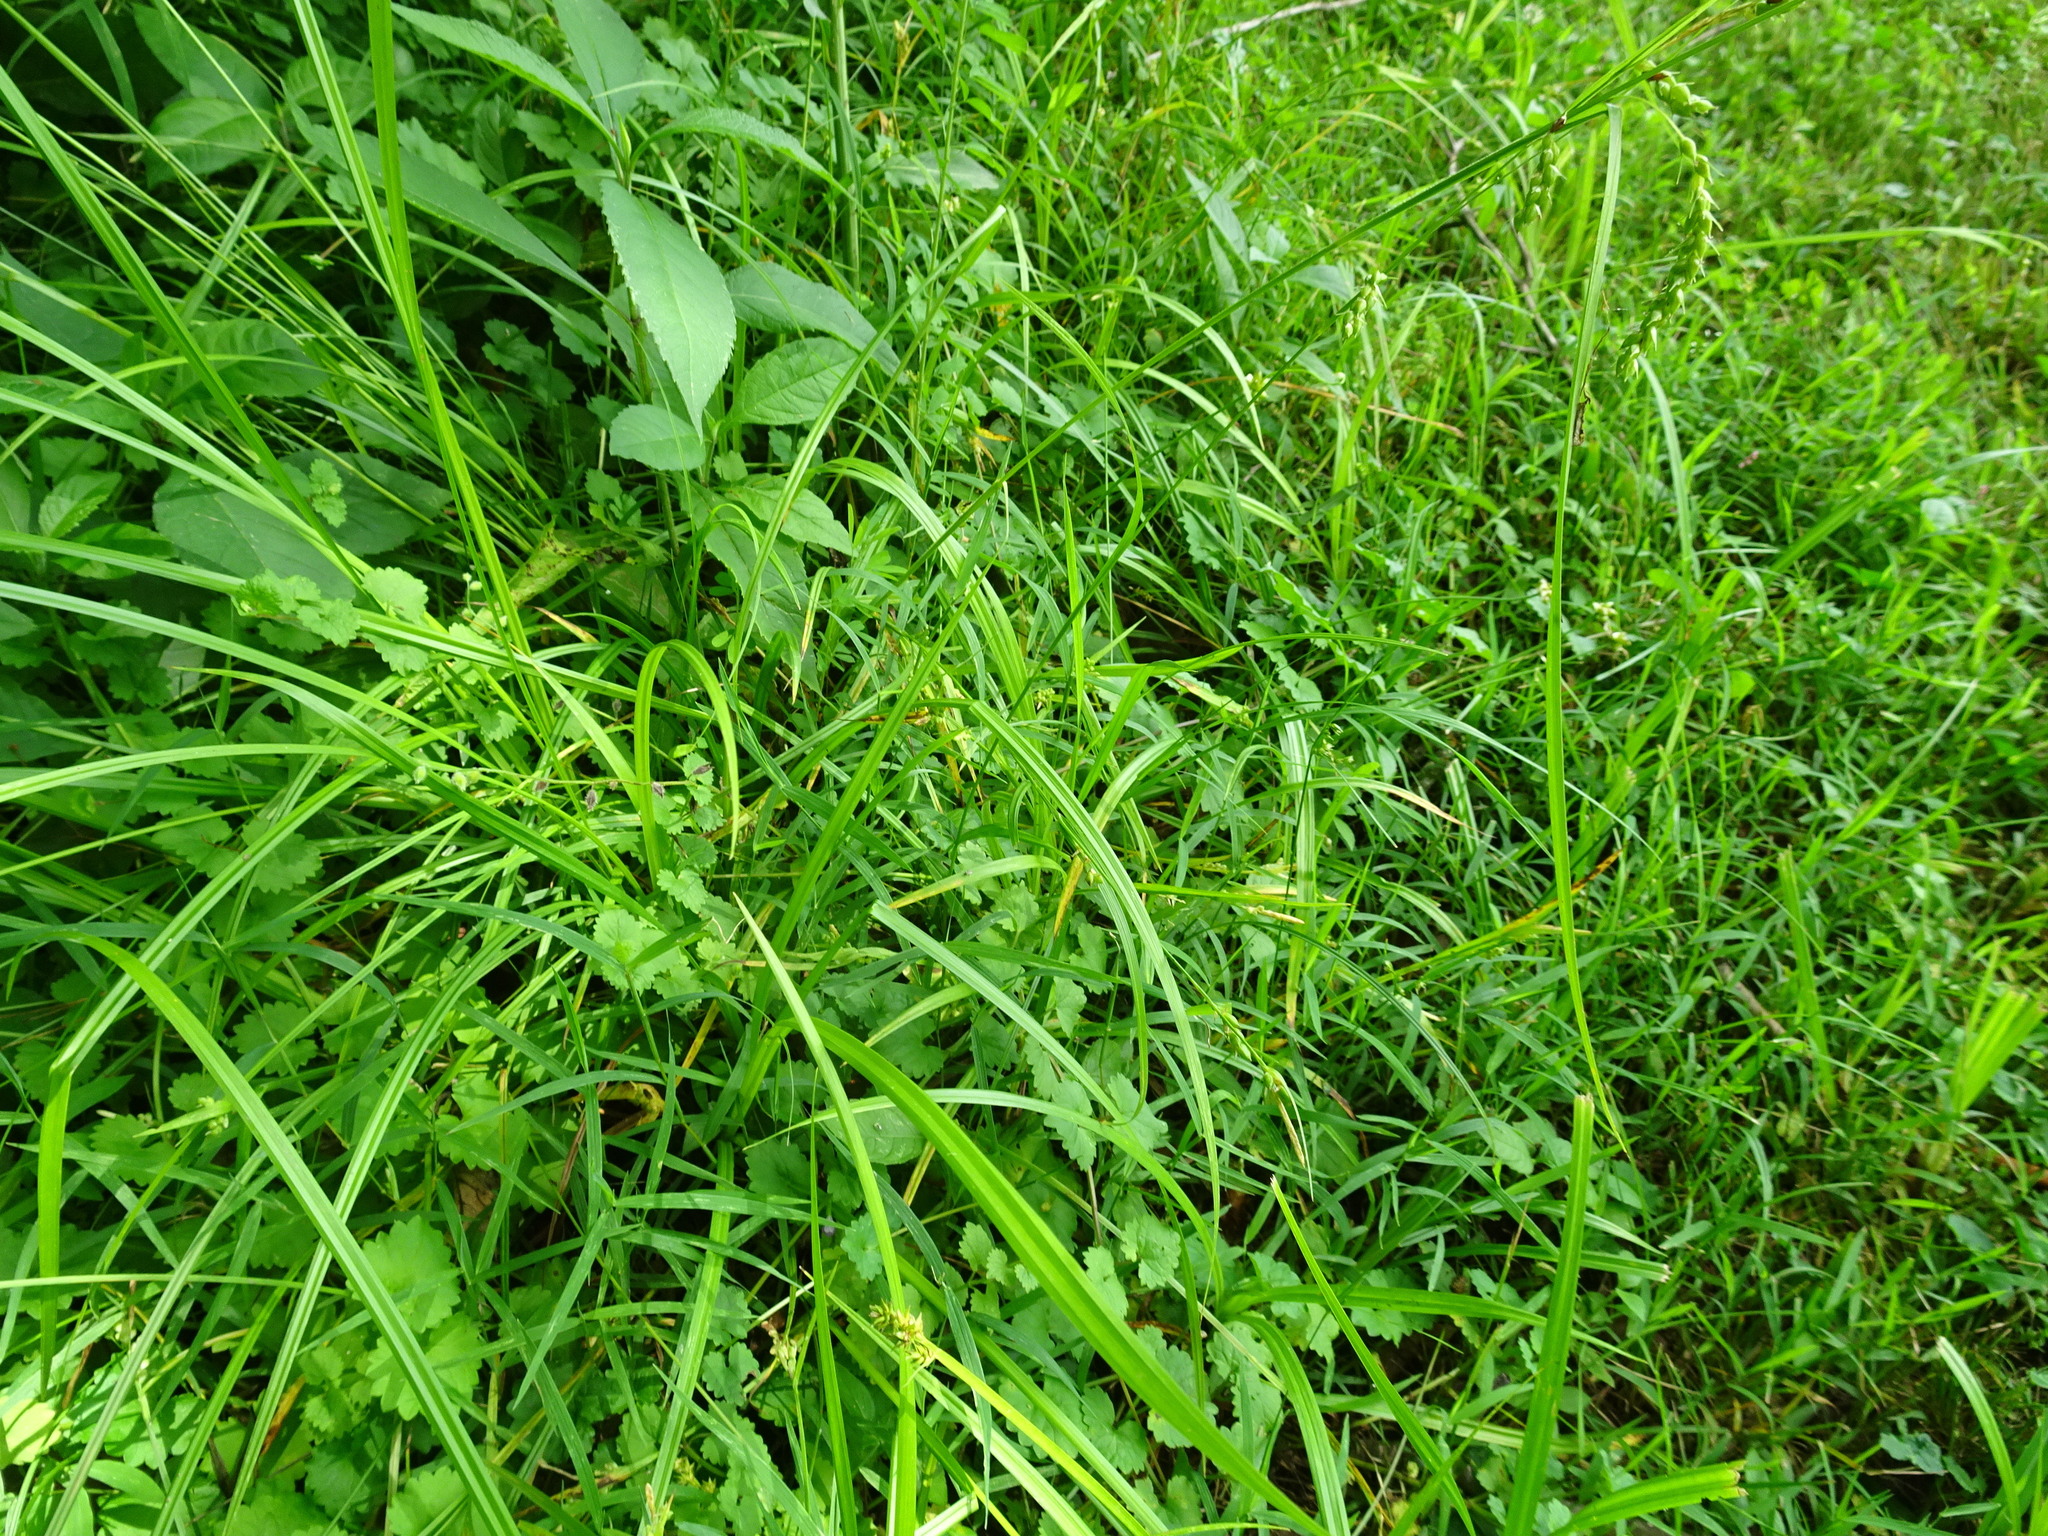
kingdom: Plantae
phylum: Tracheophyta
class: Liliopsida
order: Poales
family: Cyperaceae
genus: Carex
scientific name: Carex davisii
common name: Davis' sedge
